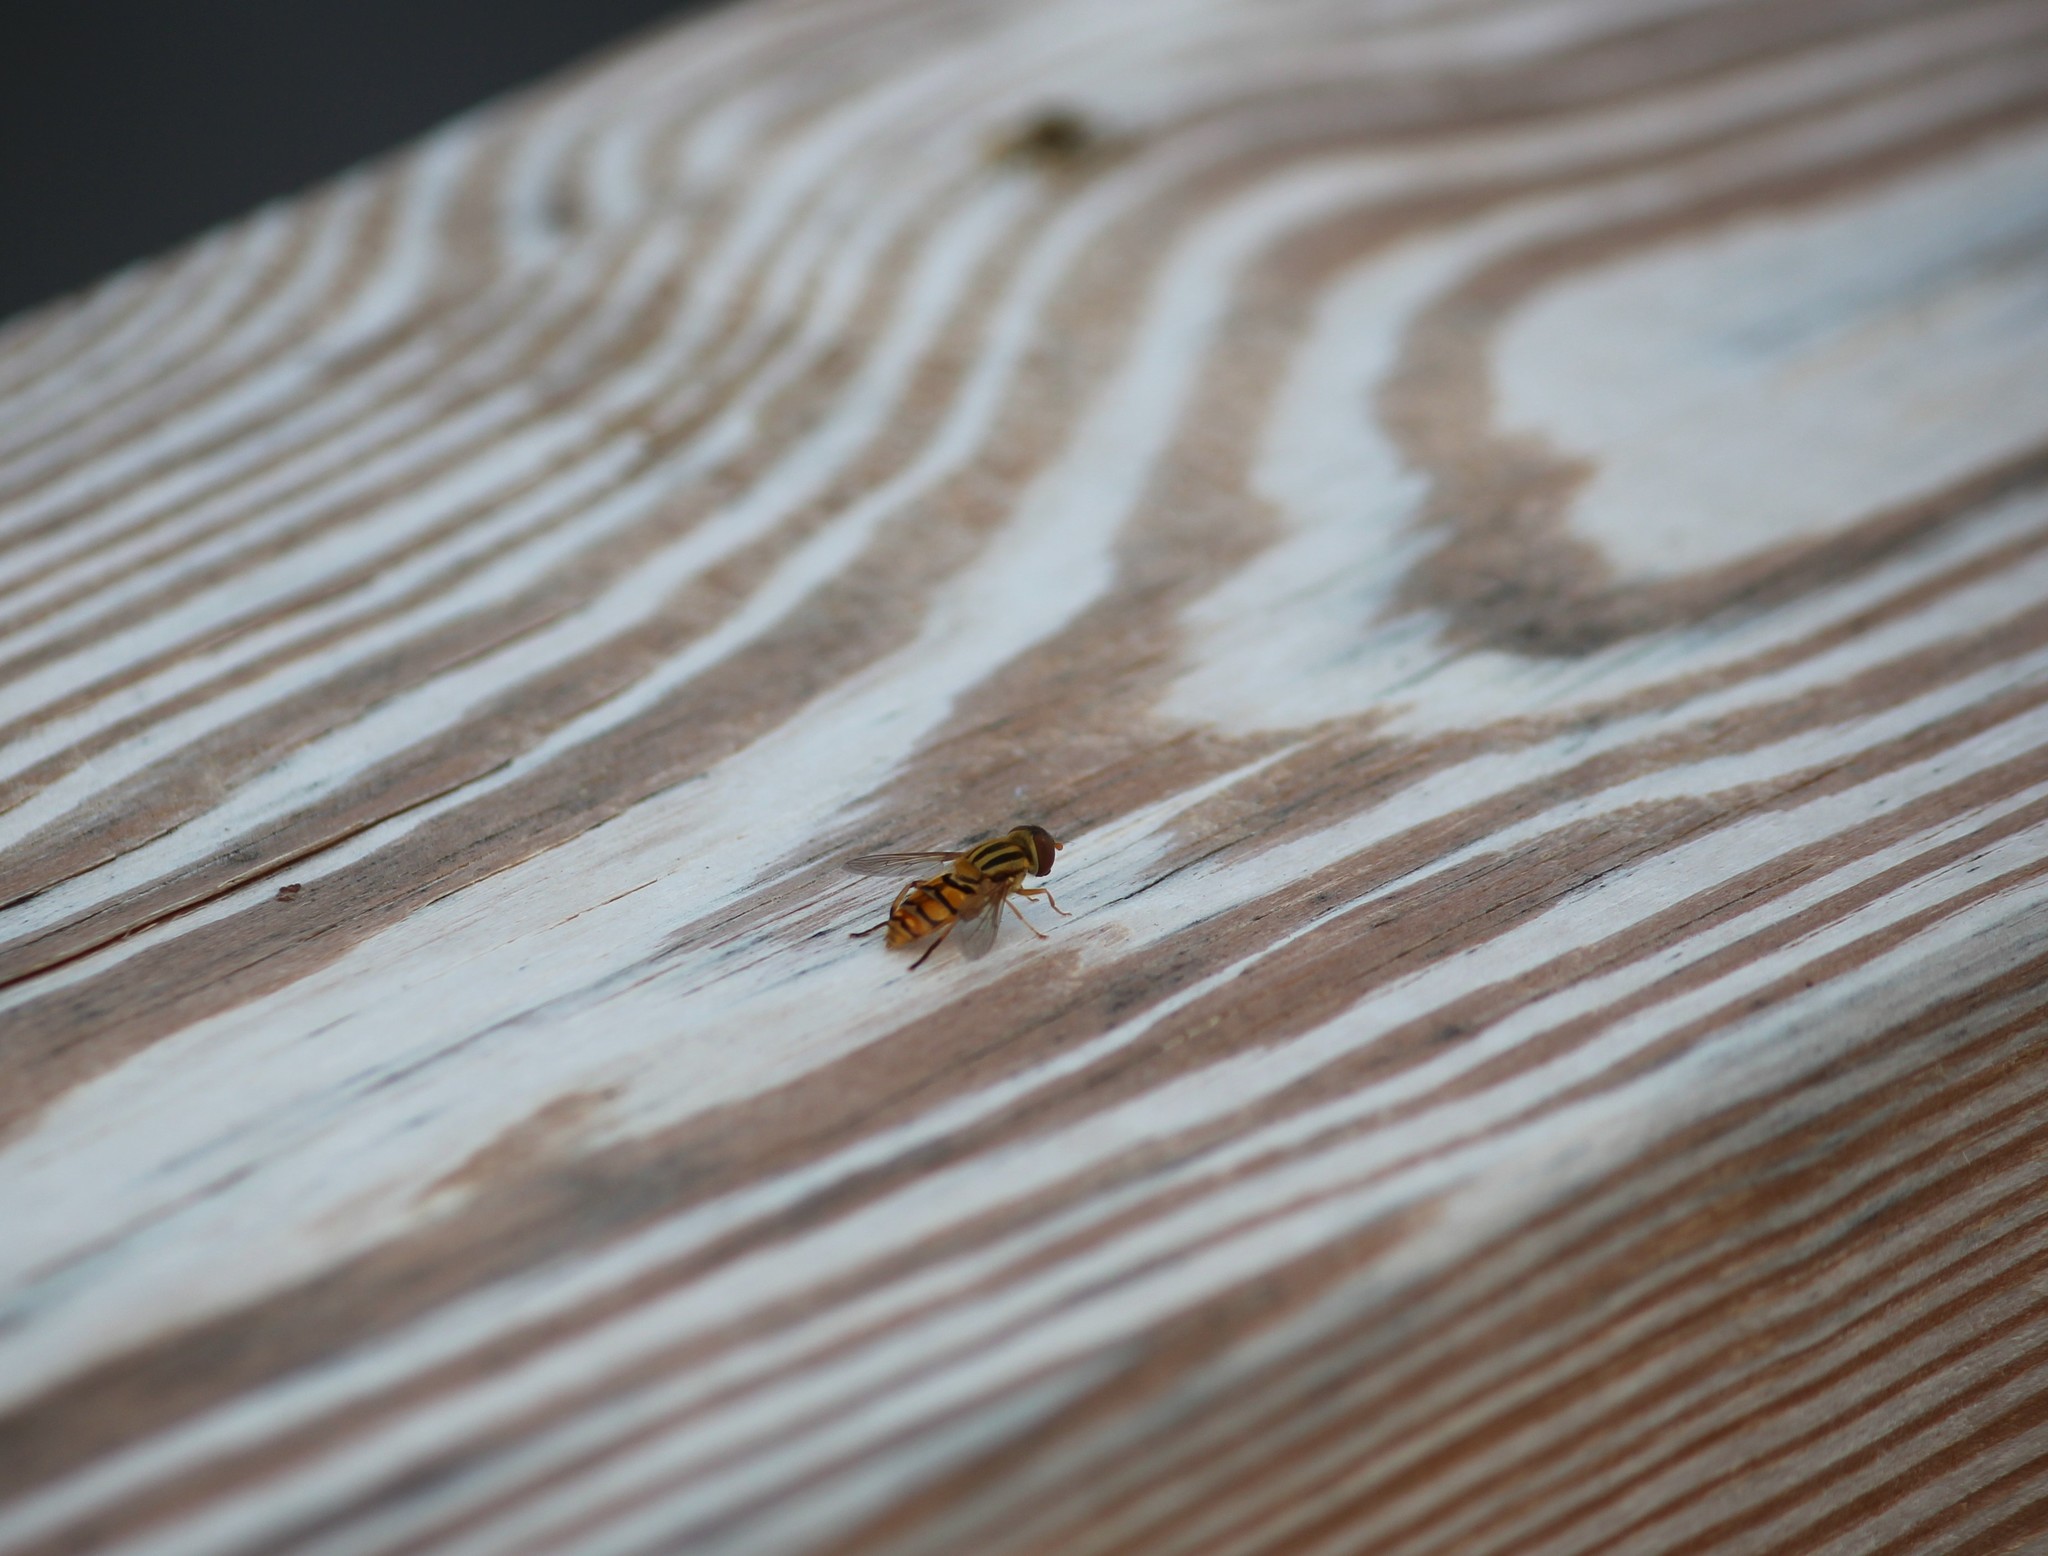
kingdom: Animalia
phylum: Arthropoda
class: Insecta
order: Diptera
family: Syrphidae
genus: Parhelophilus
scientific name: Parhelophilus integer
